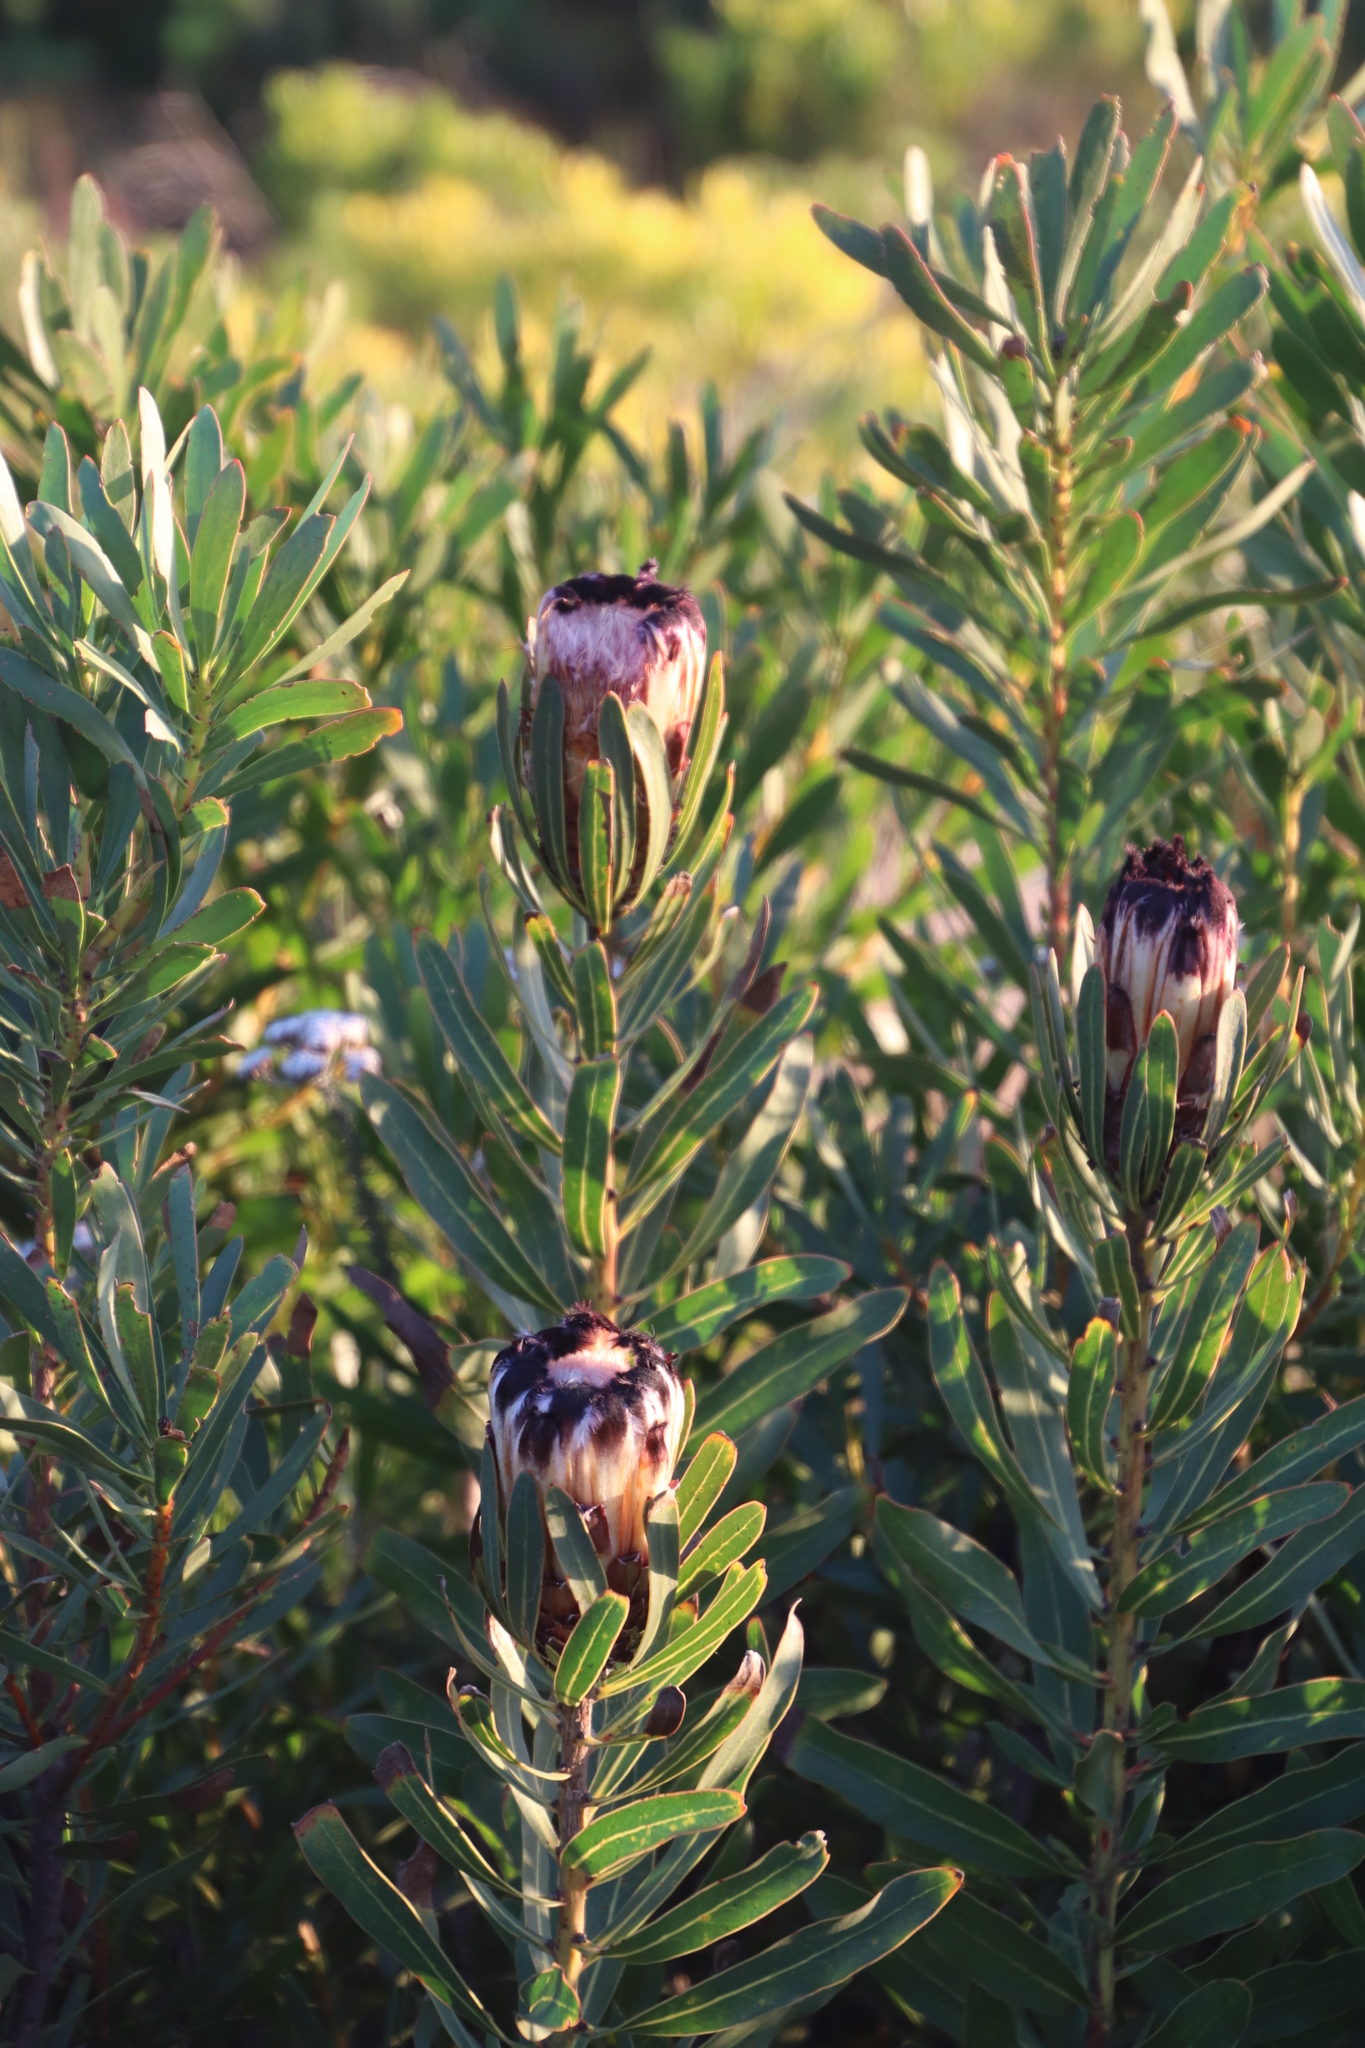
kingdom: Plantae
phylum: Tracheophyta
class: Magnoliopsida
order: Proteales
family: Proteaceae
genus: Protea
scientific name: Protea
